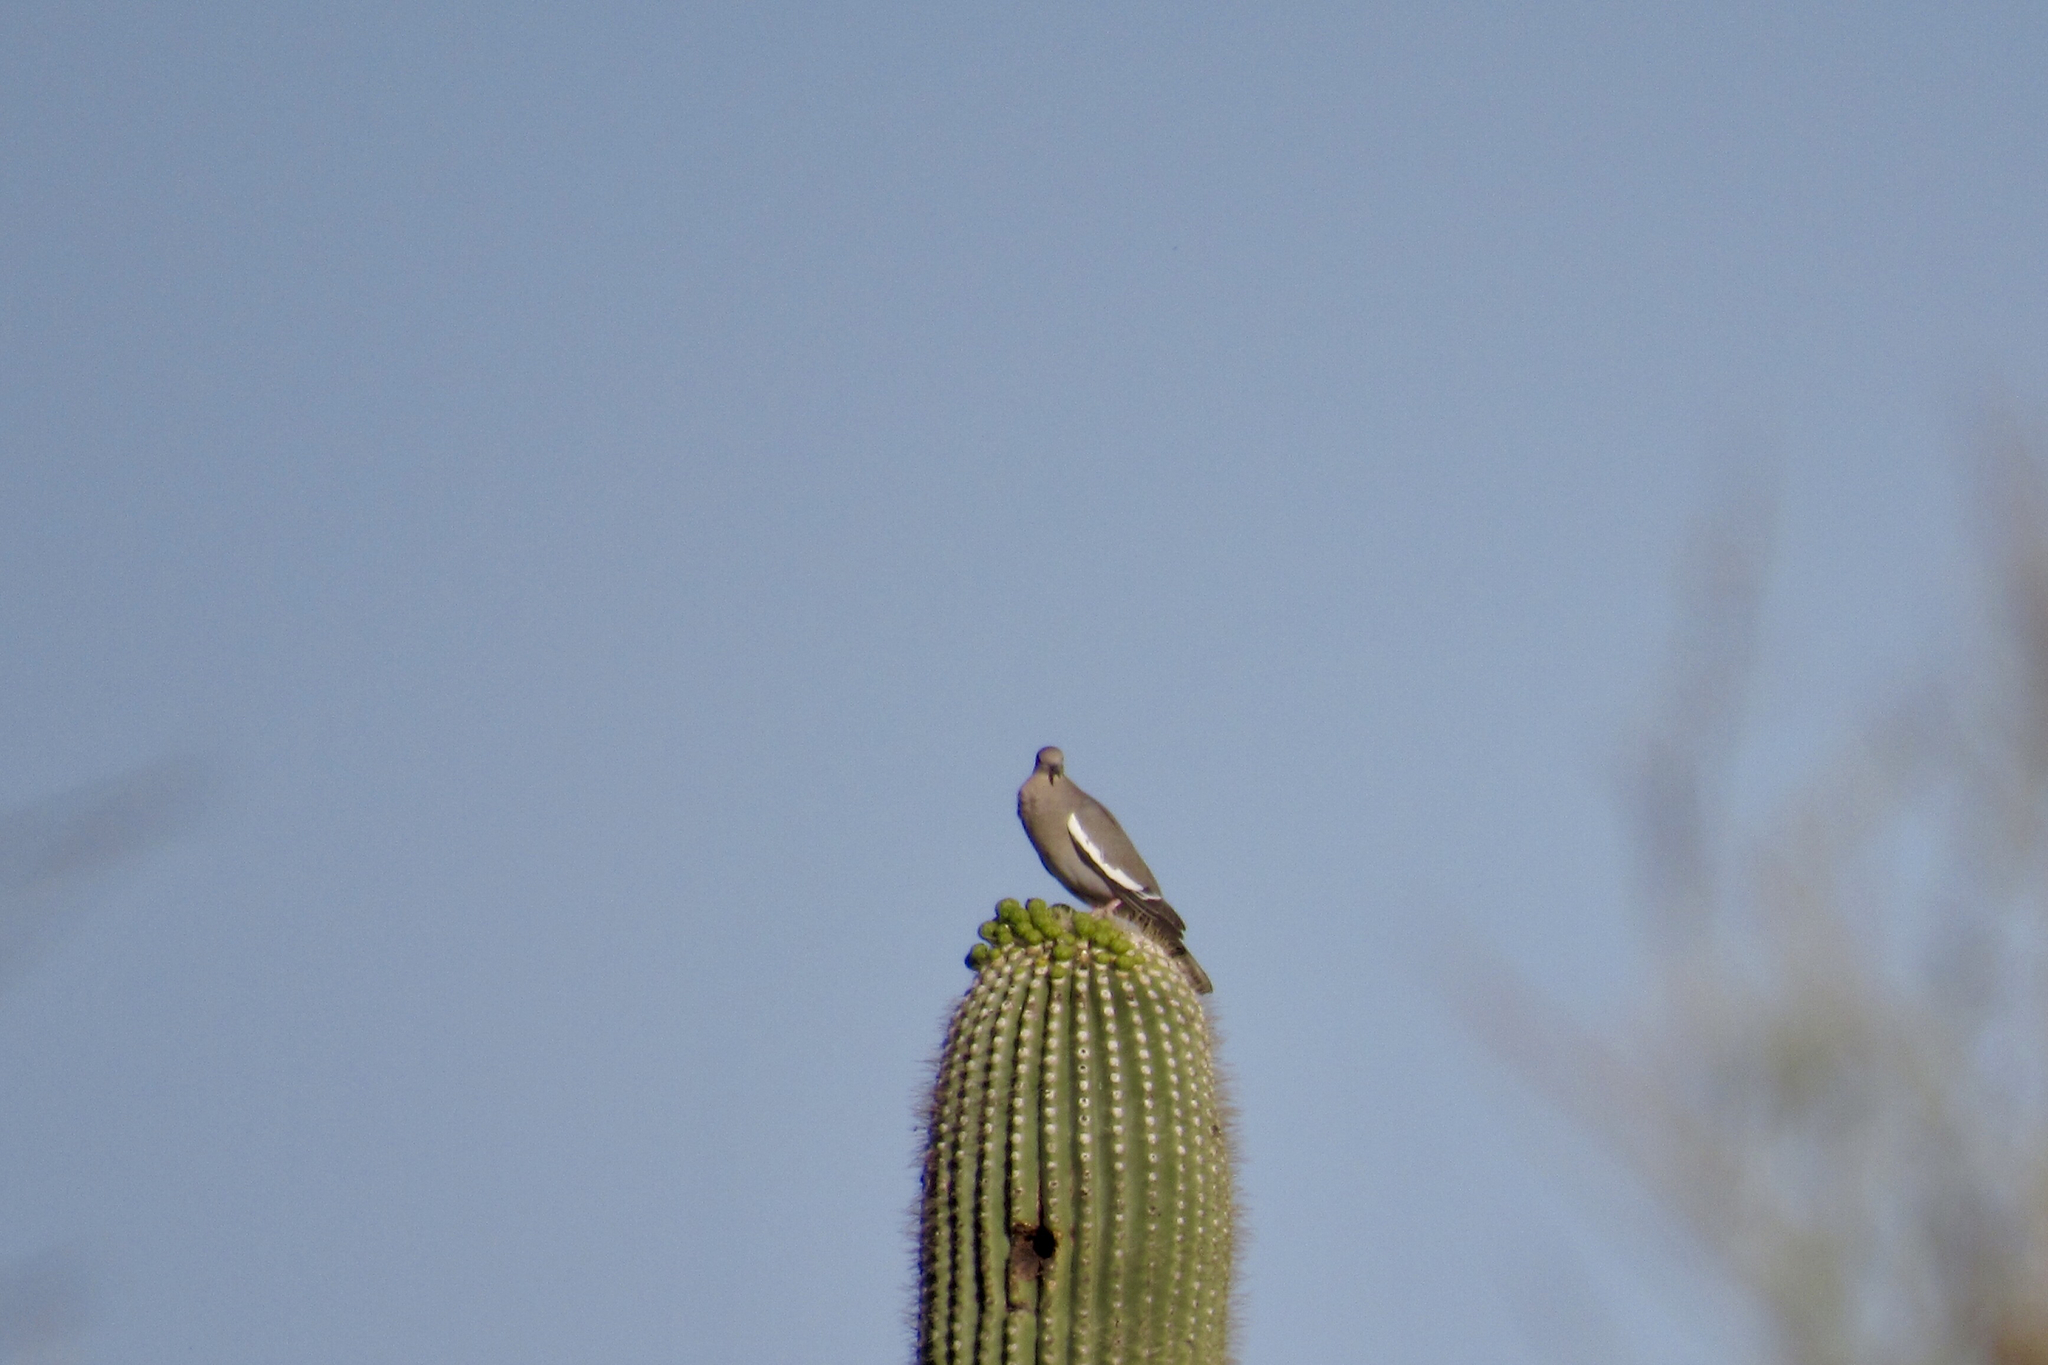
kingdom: Animalia
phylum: Chordata
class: Aves
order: Columbiformes
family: Columbidae
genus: Zenaida
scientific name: Zenaida asiatica
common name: White-winged dove
